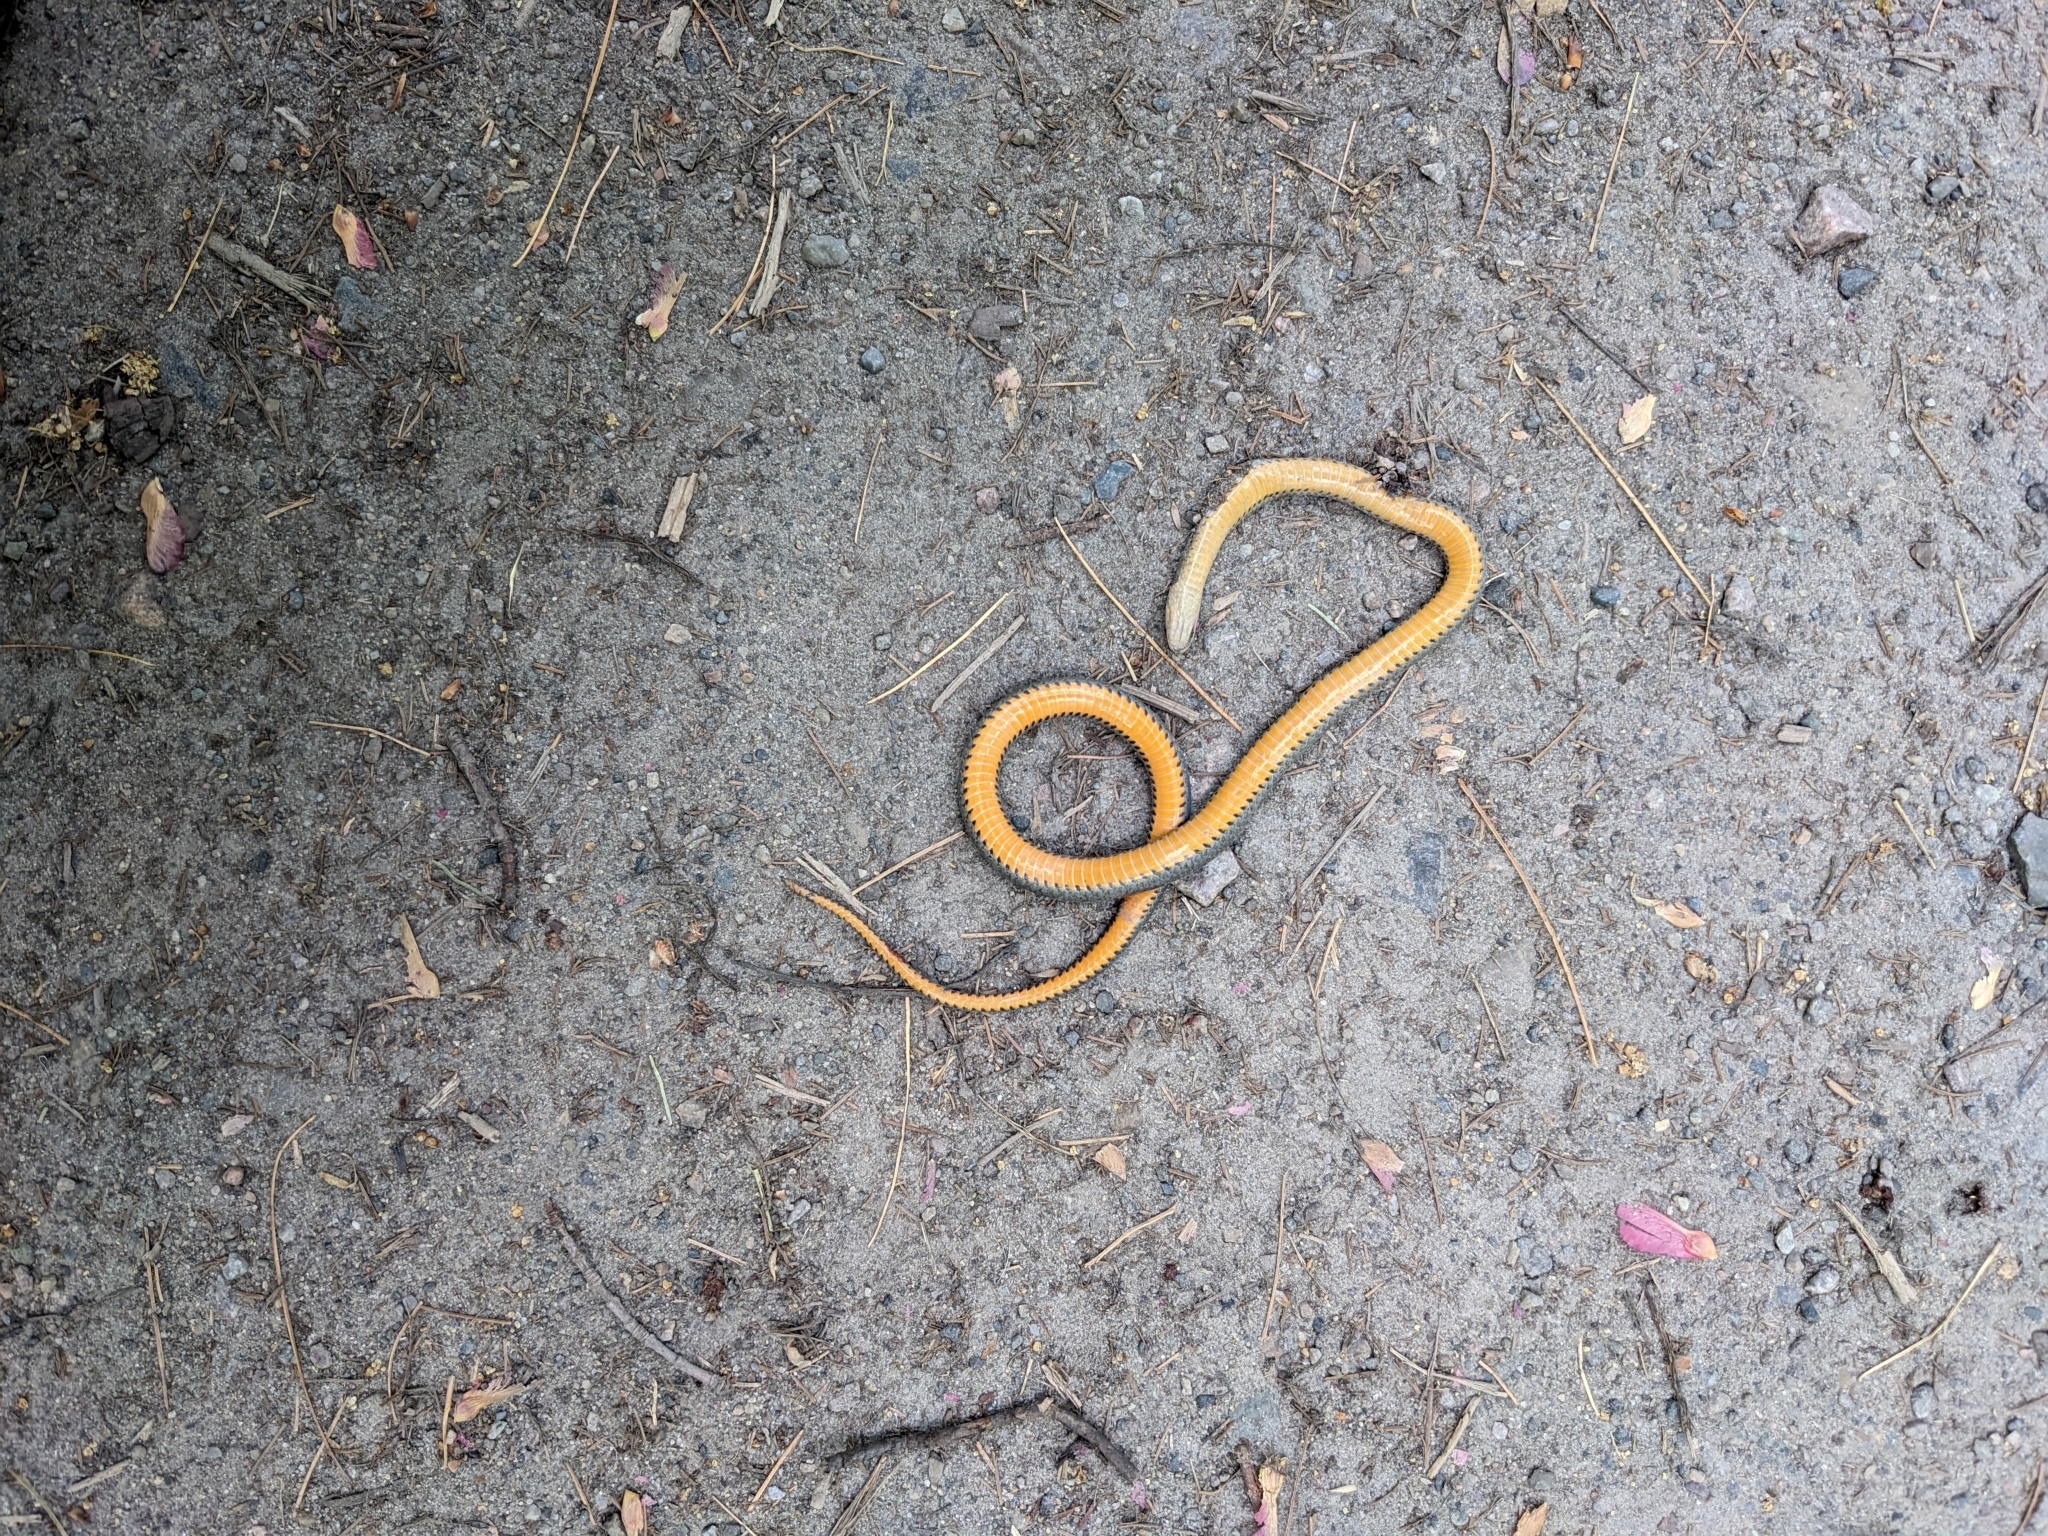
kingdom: Animalia
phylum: Chordata
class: Squamata
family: Colubridae
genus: Diadophis
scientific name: Diadophis punctatus
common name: Ringneck snake
